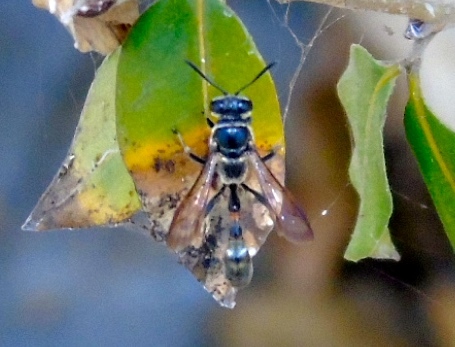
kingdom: Animalia
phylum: Arthropoda
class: Insecta
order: Hymenoptera
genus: Trypargilum
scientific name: Trypargilum
